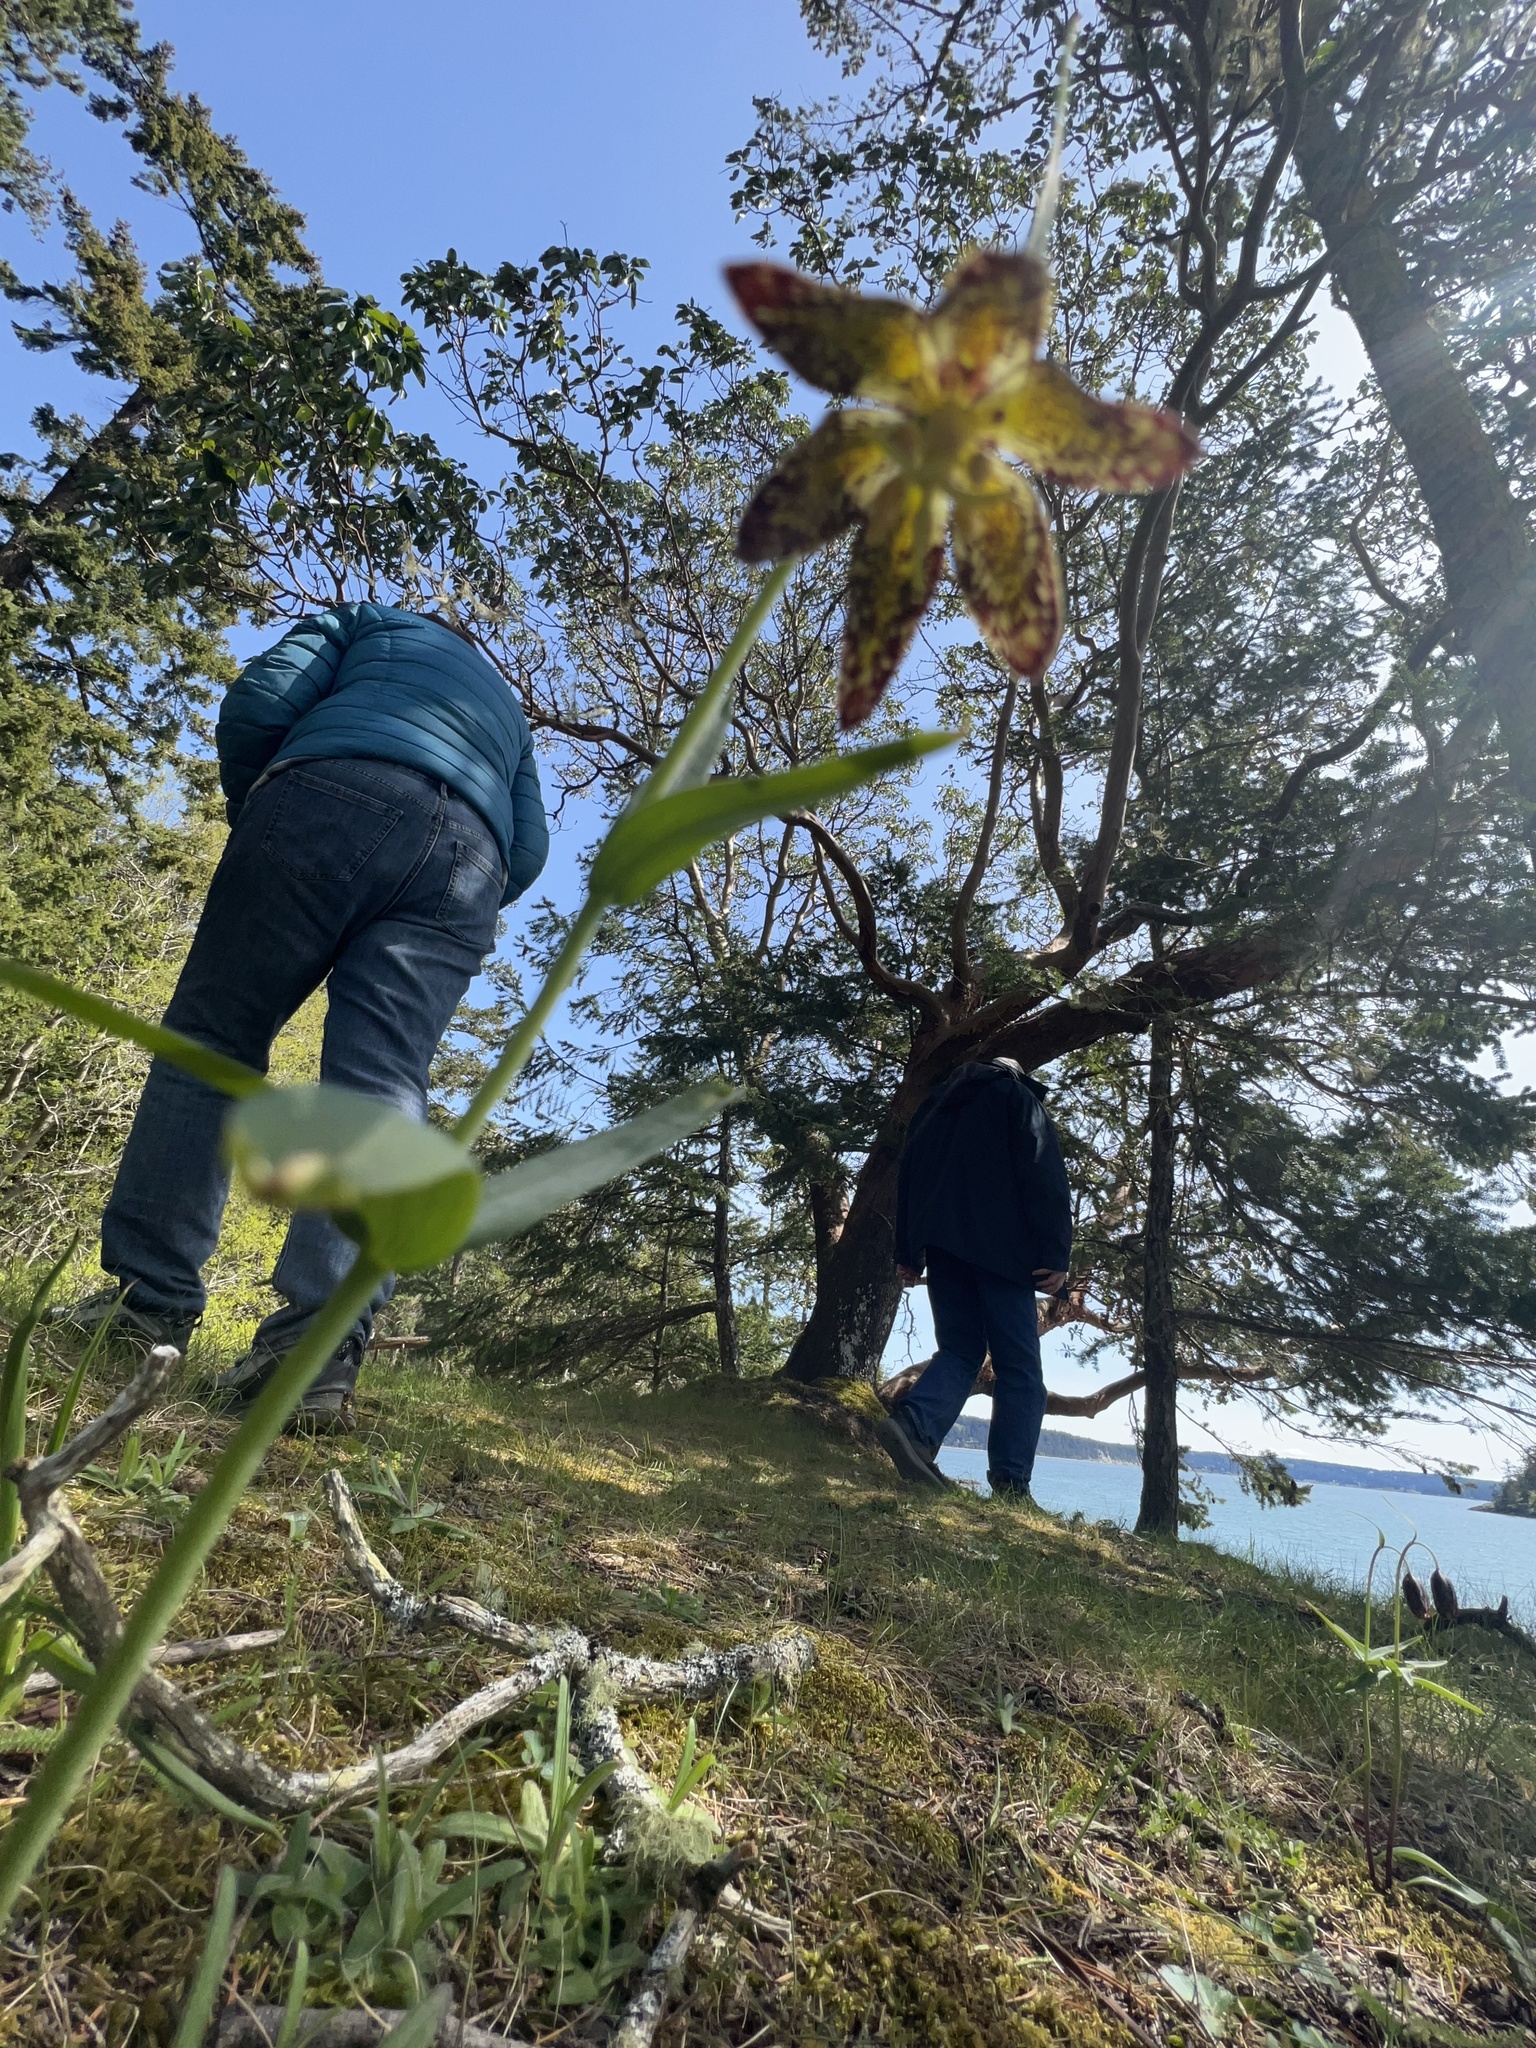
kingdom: Plantae
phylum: Tracheophyta
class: Liliopsida
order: Liliales
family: Liliaceae
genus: Fritillaria
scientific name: Fritillaria affinis
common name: Ojai fritillary
